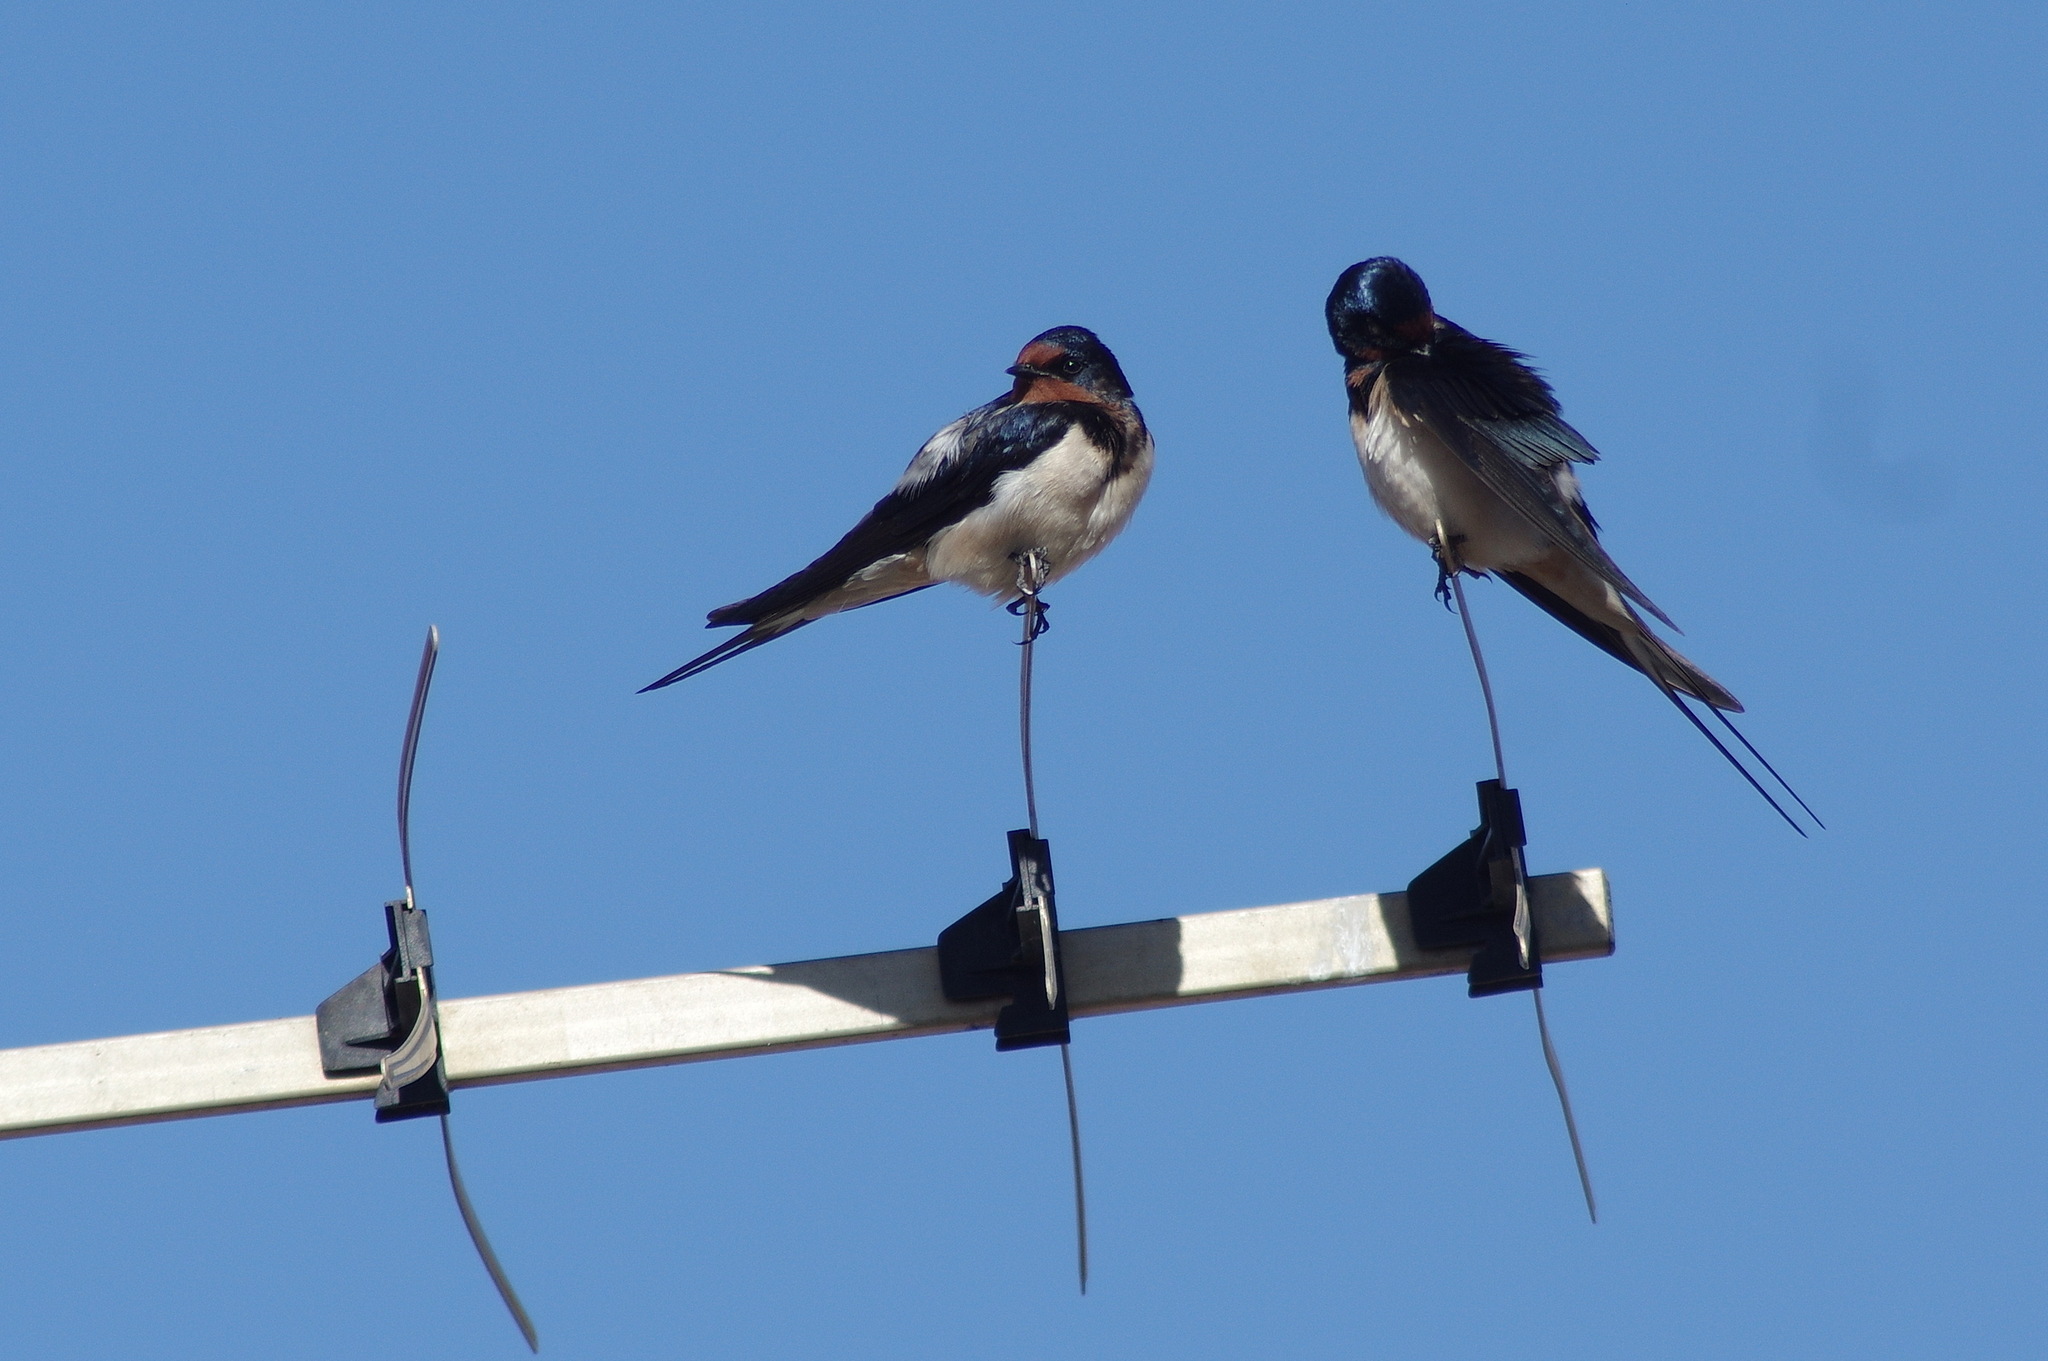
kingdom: Animalia
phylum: Chordata
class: Aves
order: Passeriformes
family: Hirundinidae
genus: Hirundo
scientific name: Hirundo rustica
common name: Barn swallow
